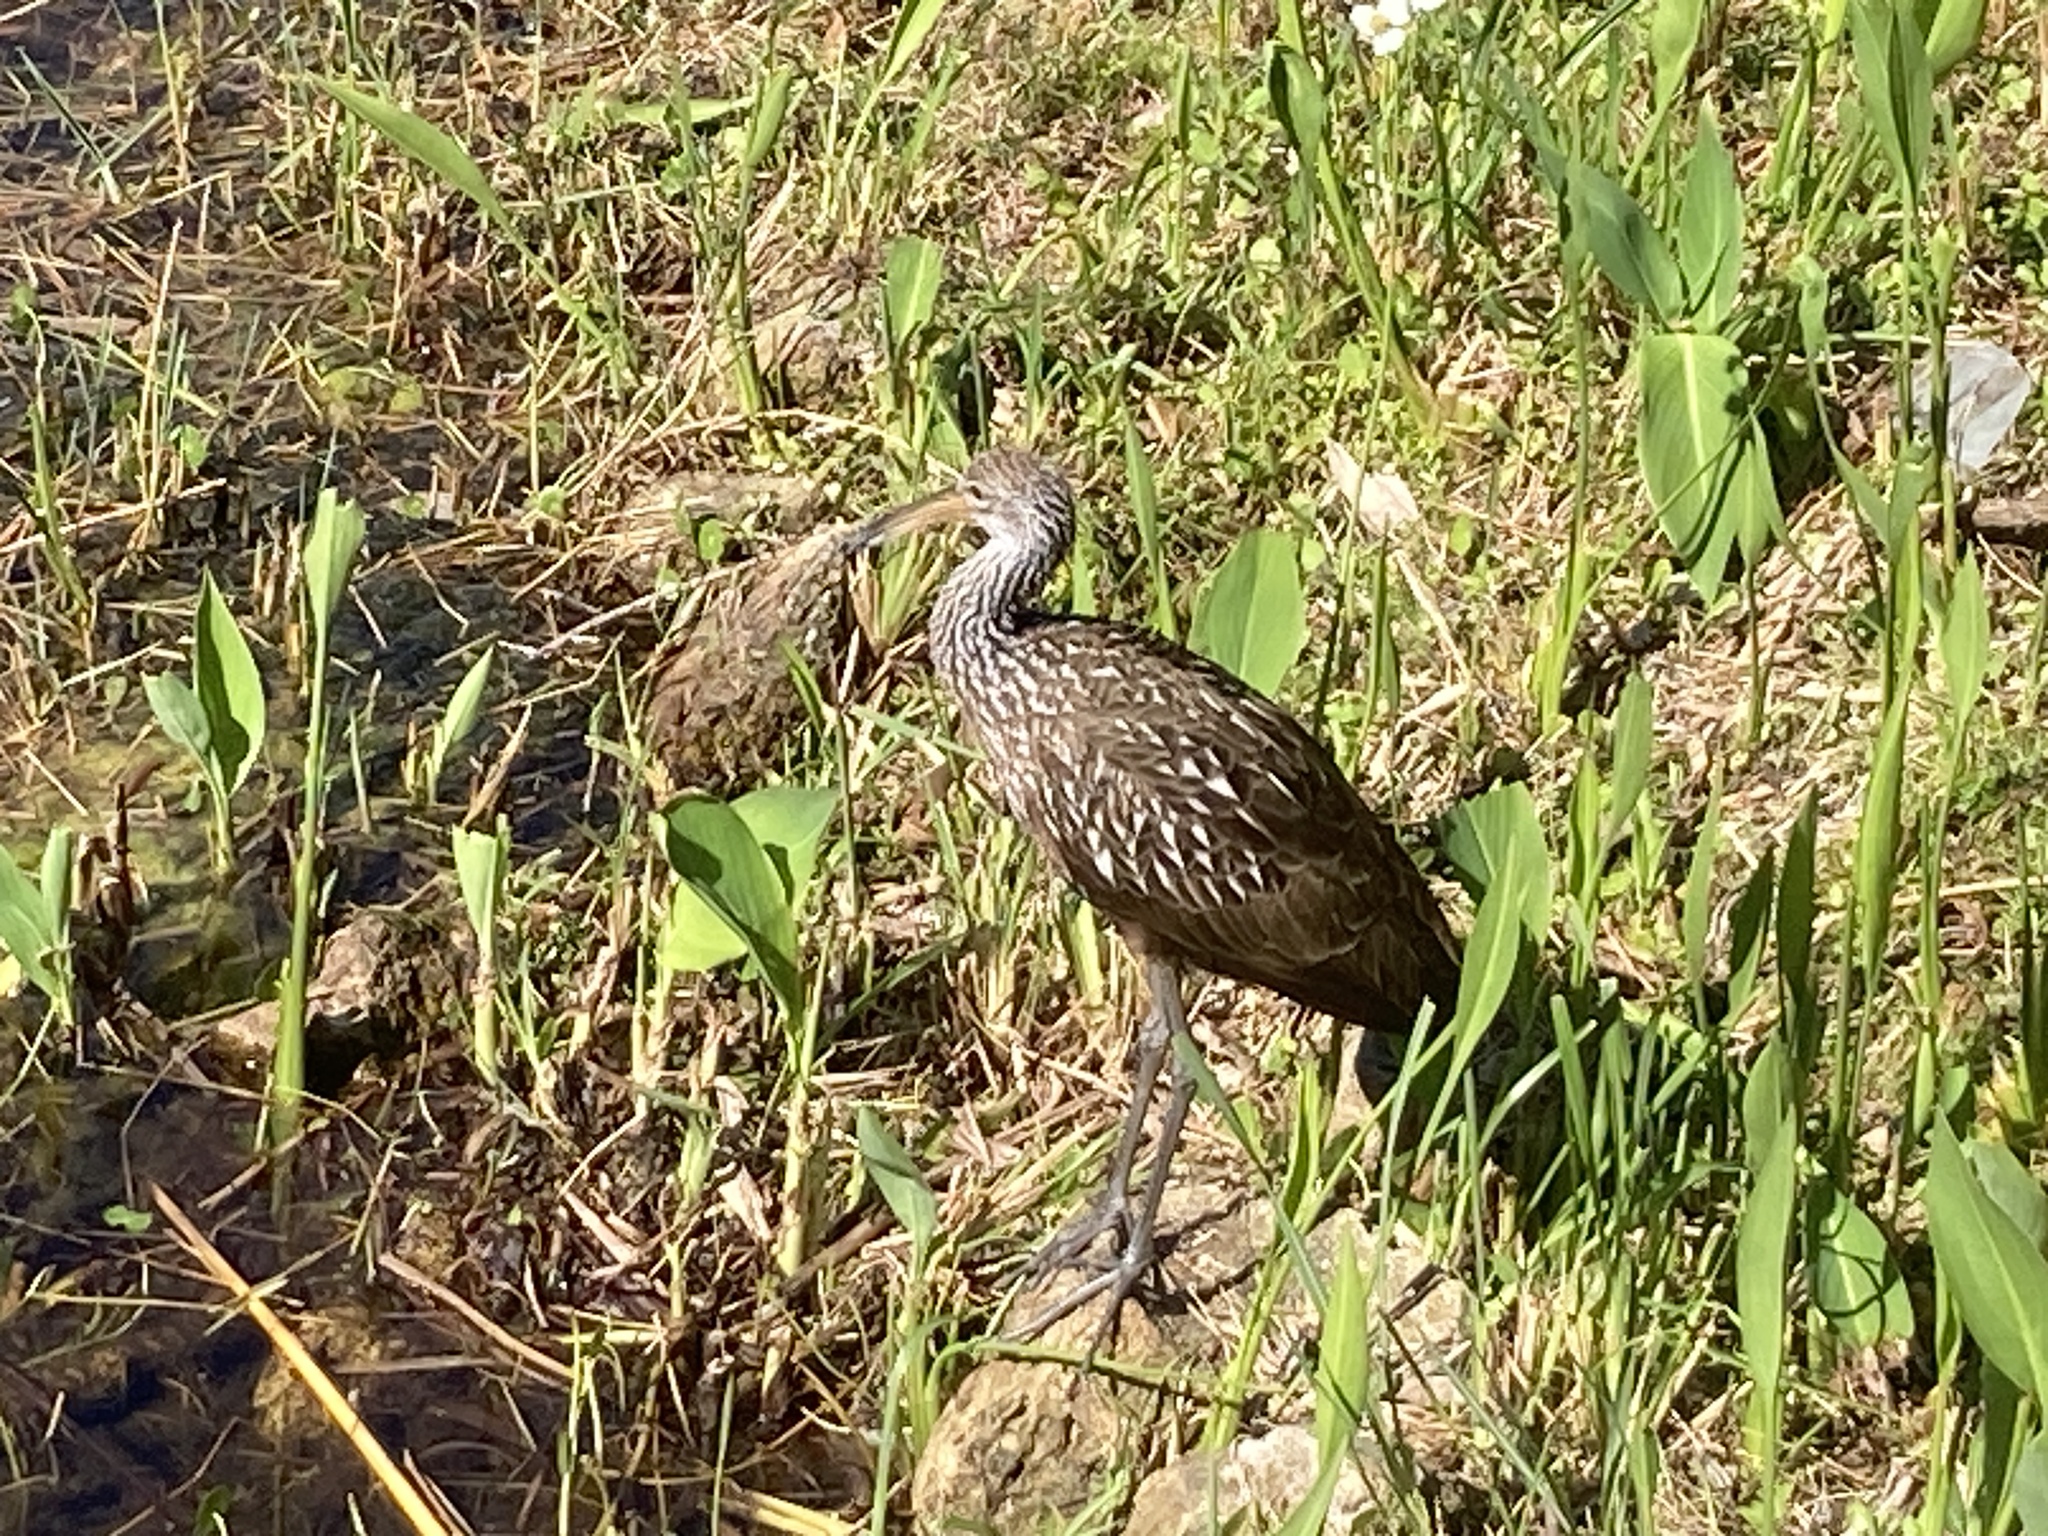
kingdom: Animalia
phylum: Chordata
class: Aves
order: Gruiformes
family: Aramidae
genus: Aramus
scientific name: Aramus guarauna
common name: Limpkin
